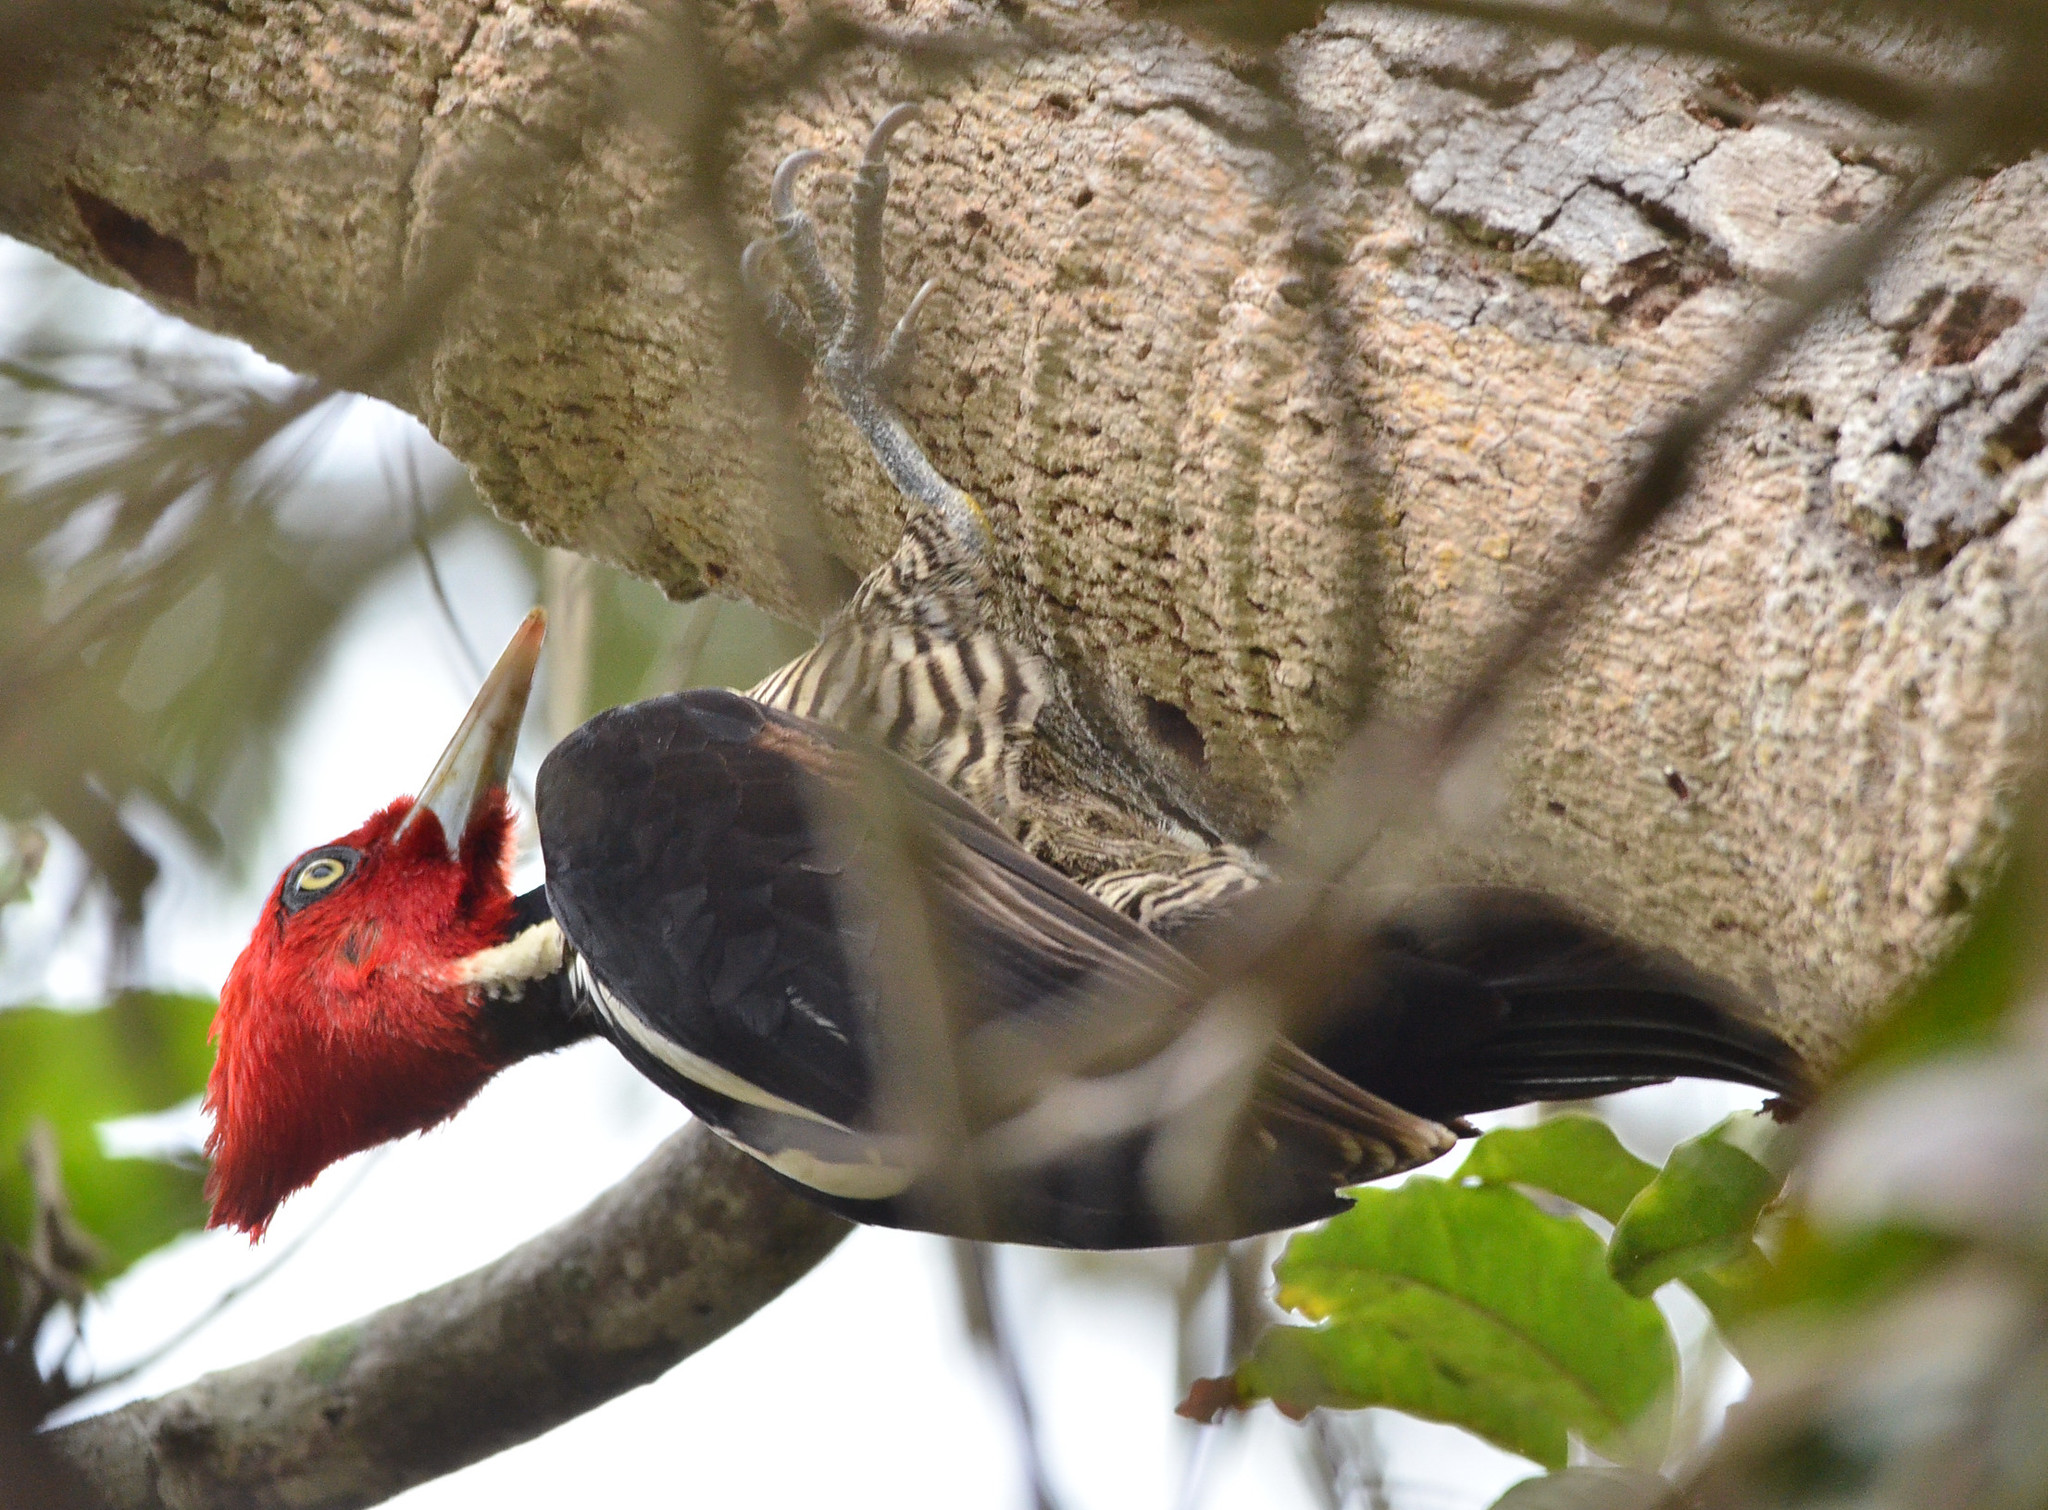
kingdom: Animalia
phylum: Chordata
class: Aves
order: Piciformes
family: Picidae
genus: Campephilus
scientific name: Campephilus guatemalensis
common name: Pale-billed woodpecker
